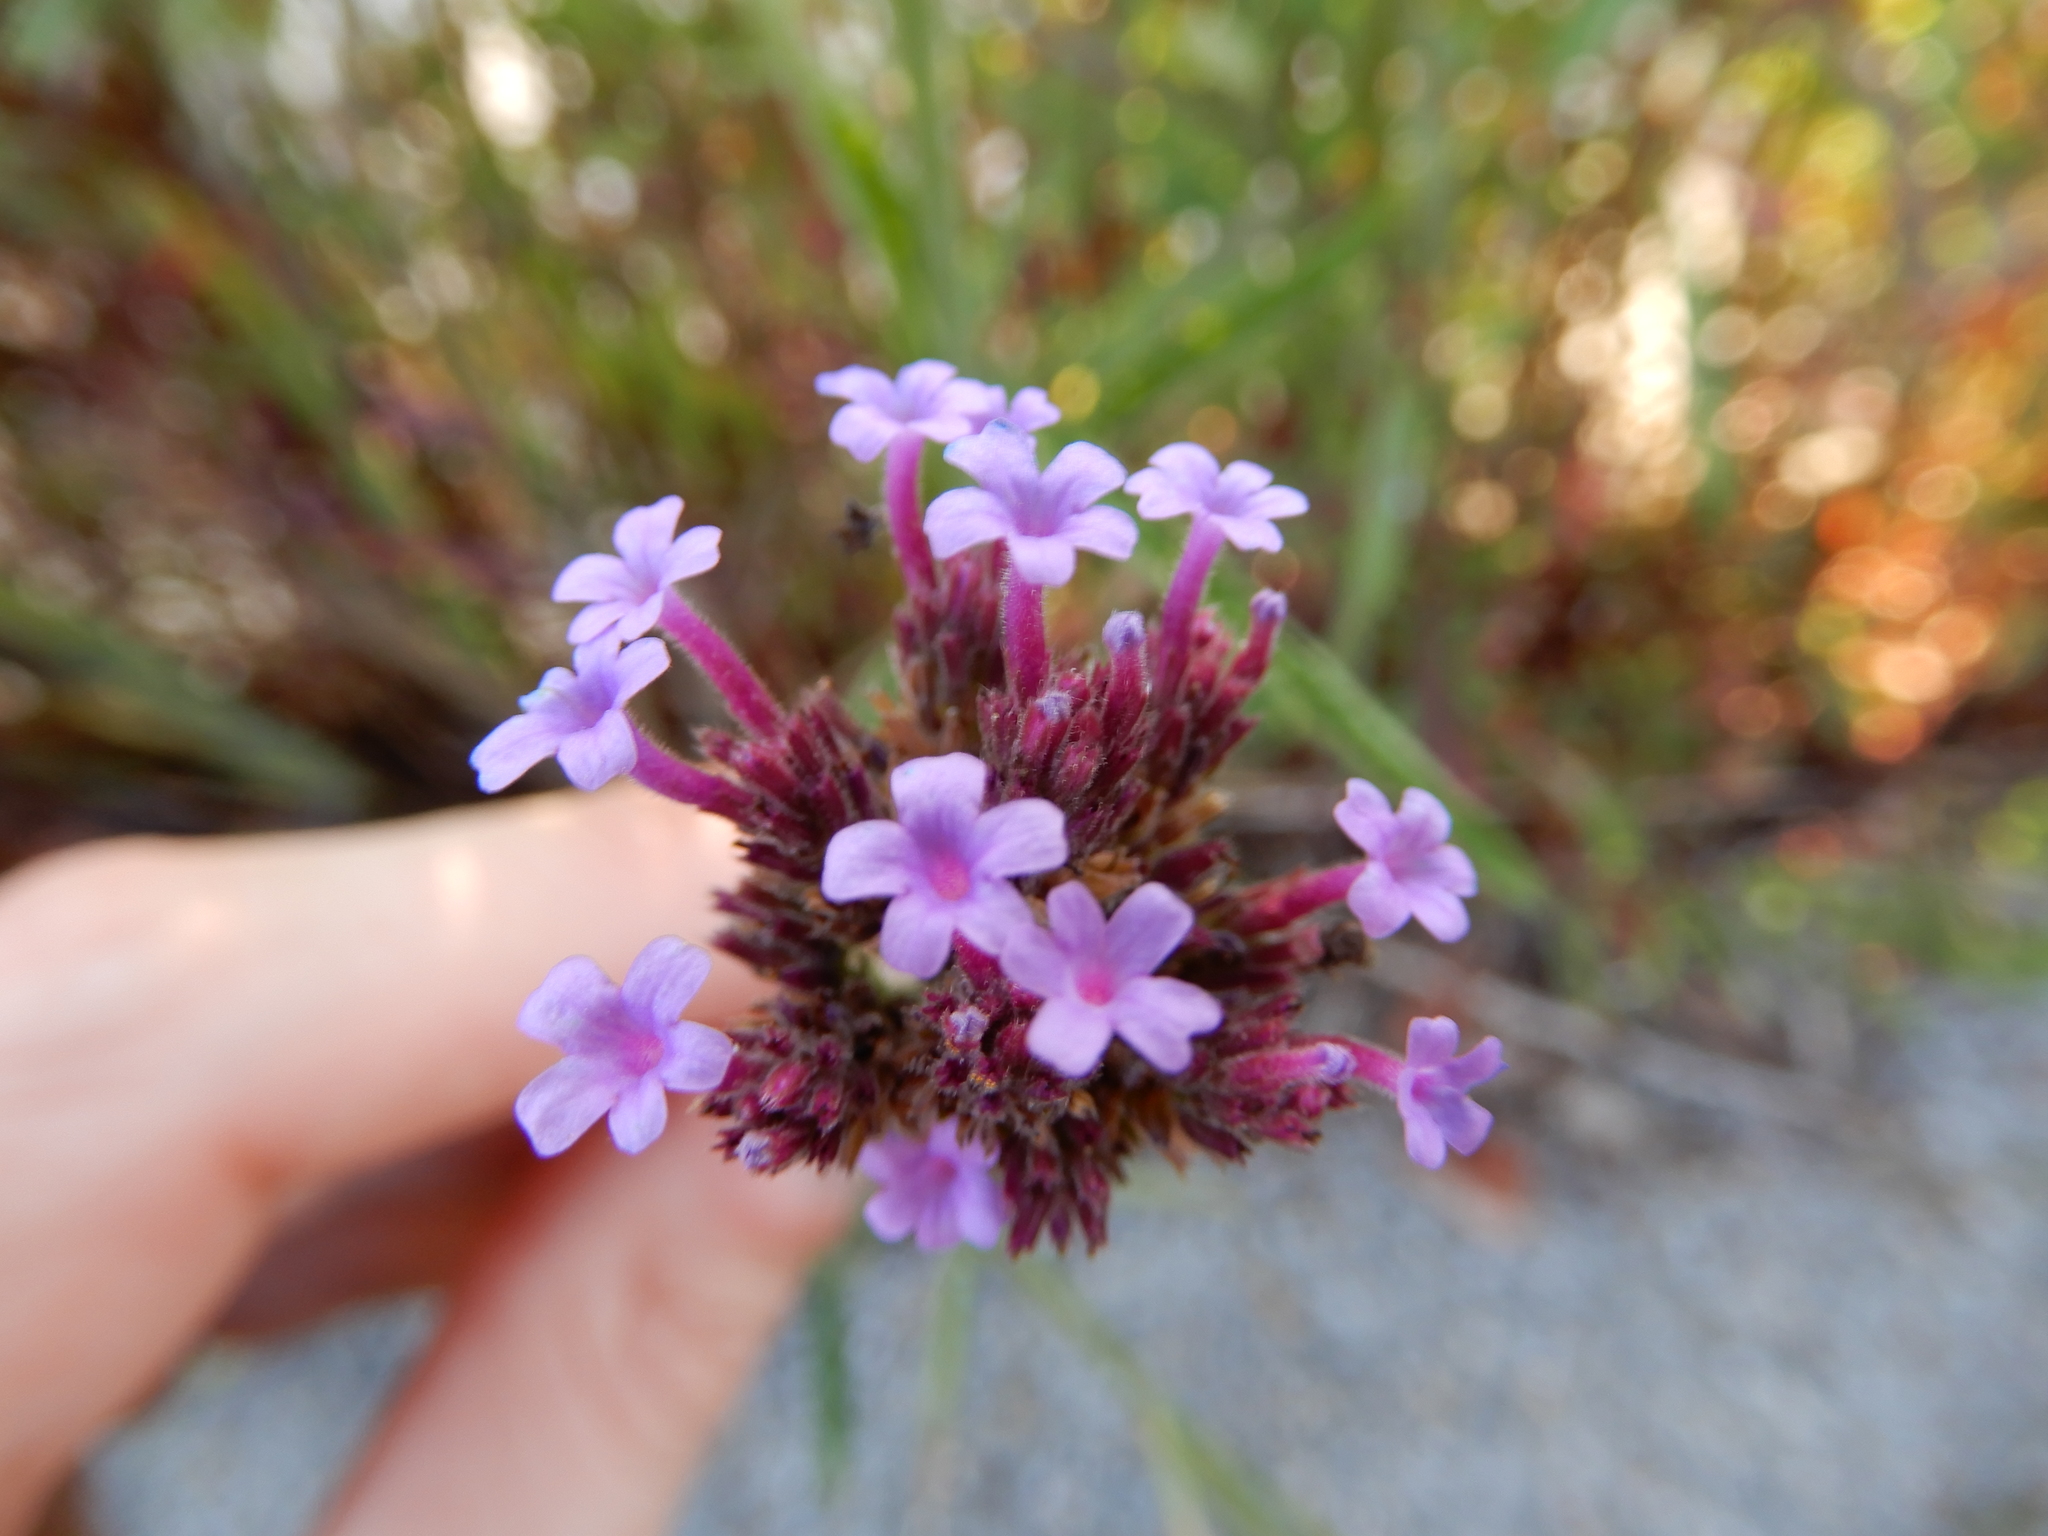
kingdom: Plantae
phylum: Tracheophyta
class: Magnoliopsida
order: Lamiales
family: Verbenaceae
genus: Verbena
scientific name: Verbena bonariensis
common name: Purpletop vervain
